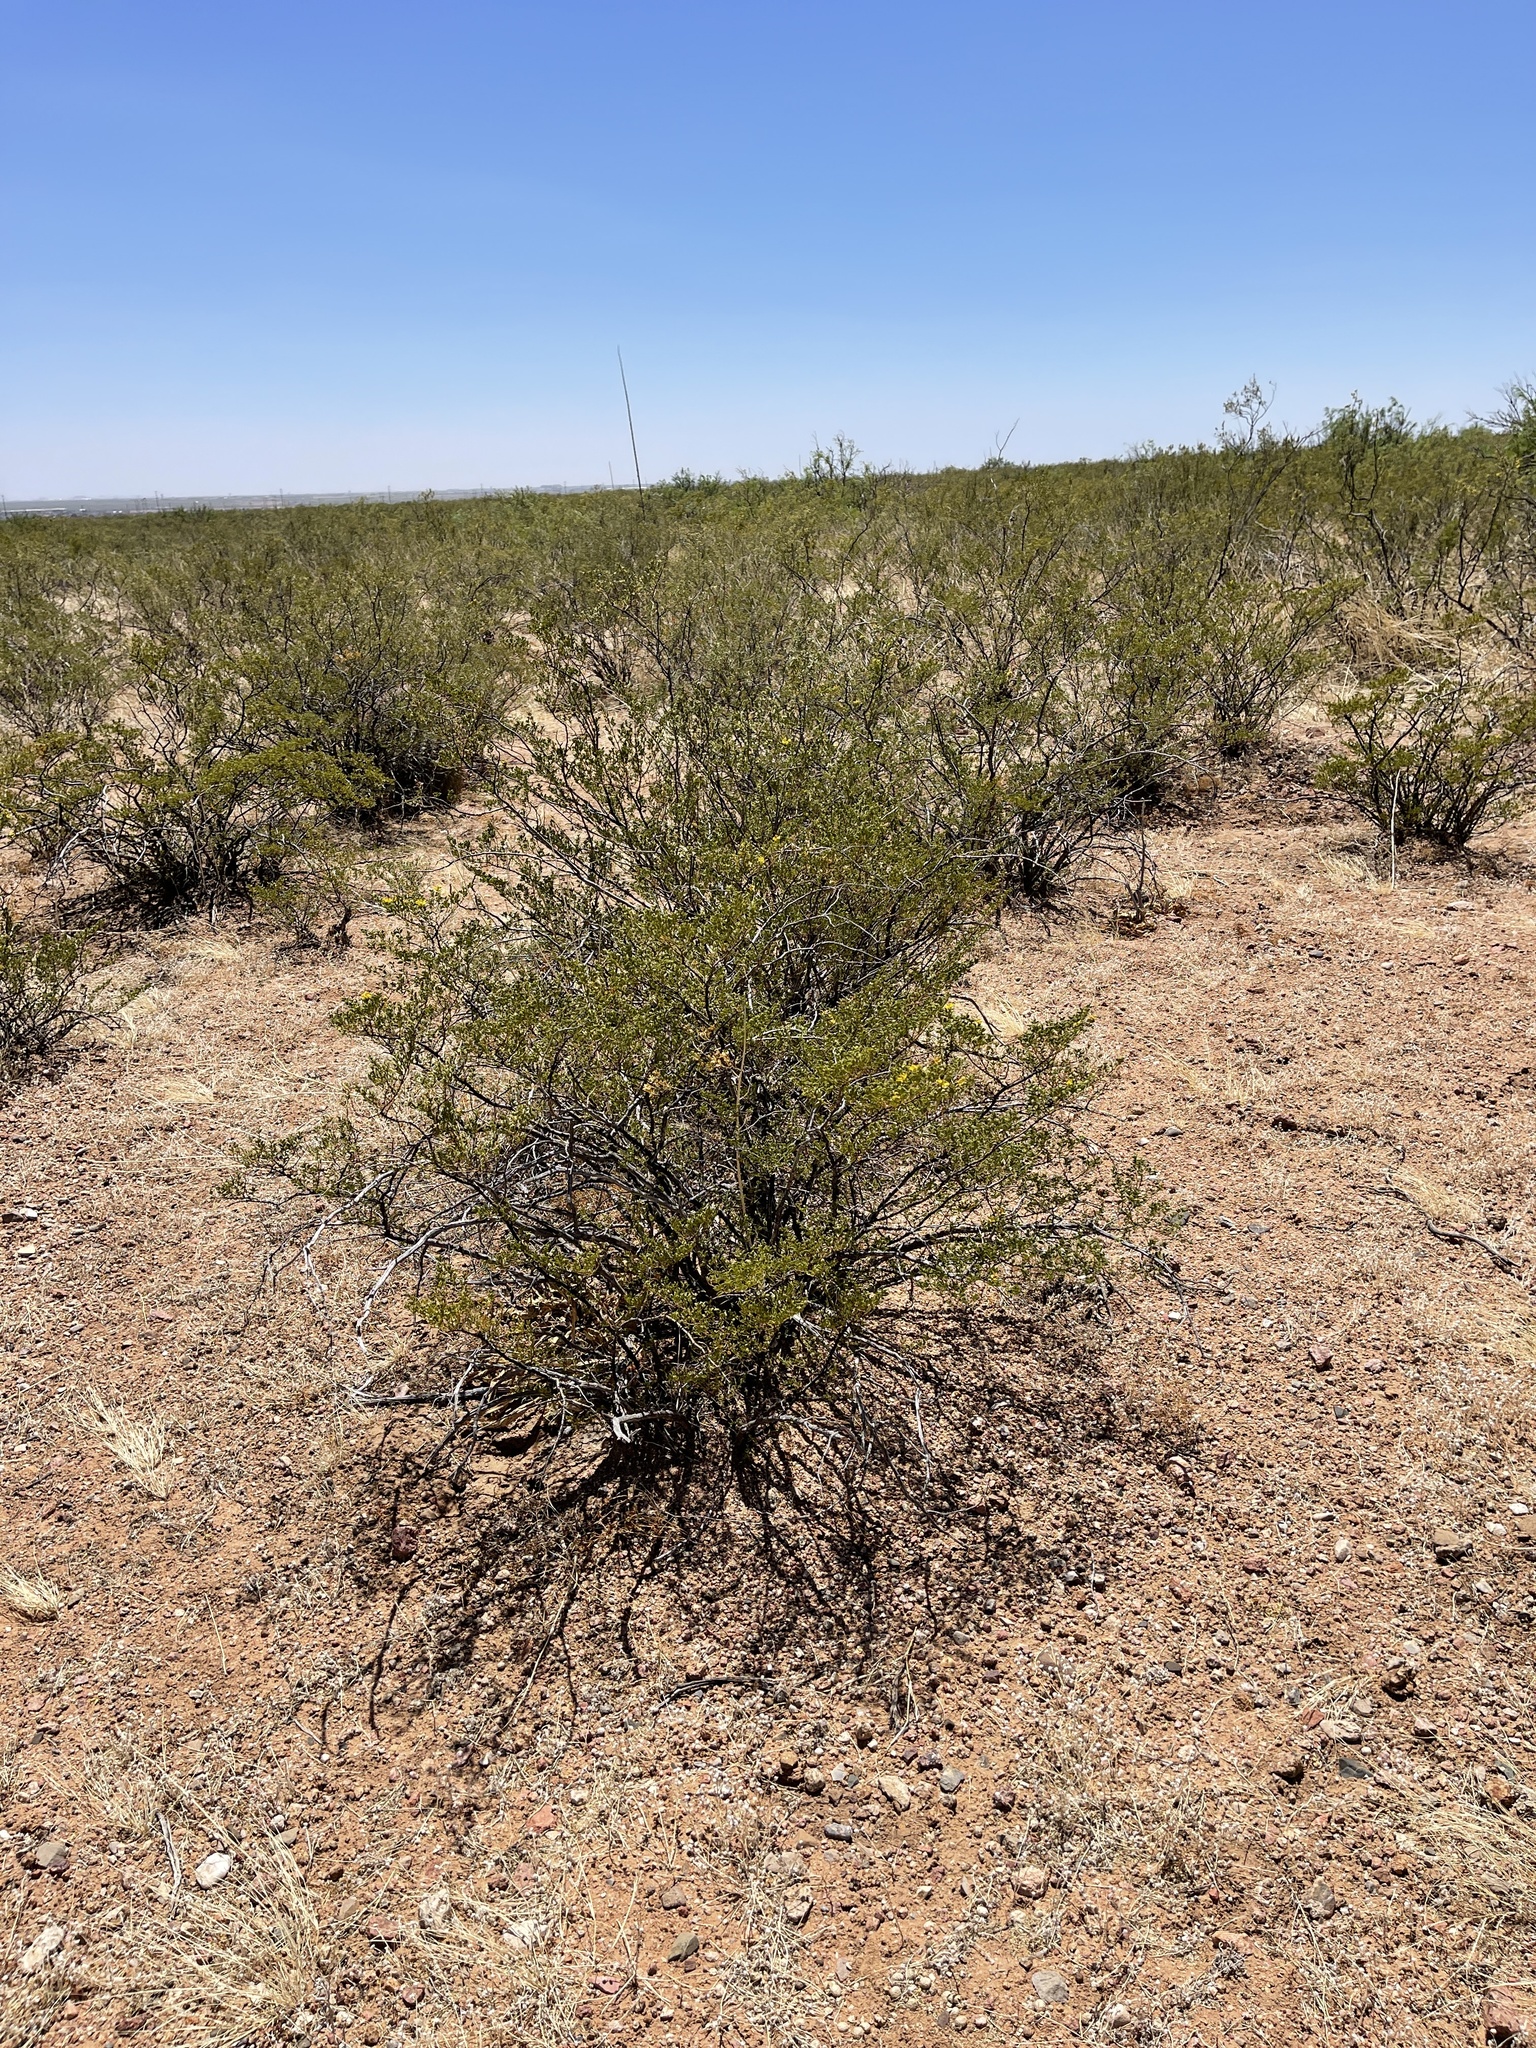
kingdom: Plantae
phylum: Tracheophyta
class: Magnoliopsida
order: Zygophyllales
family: Zygophyllaceae
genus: Larrea
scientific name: Larrea tridentata
